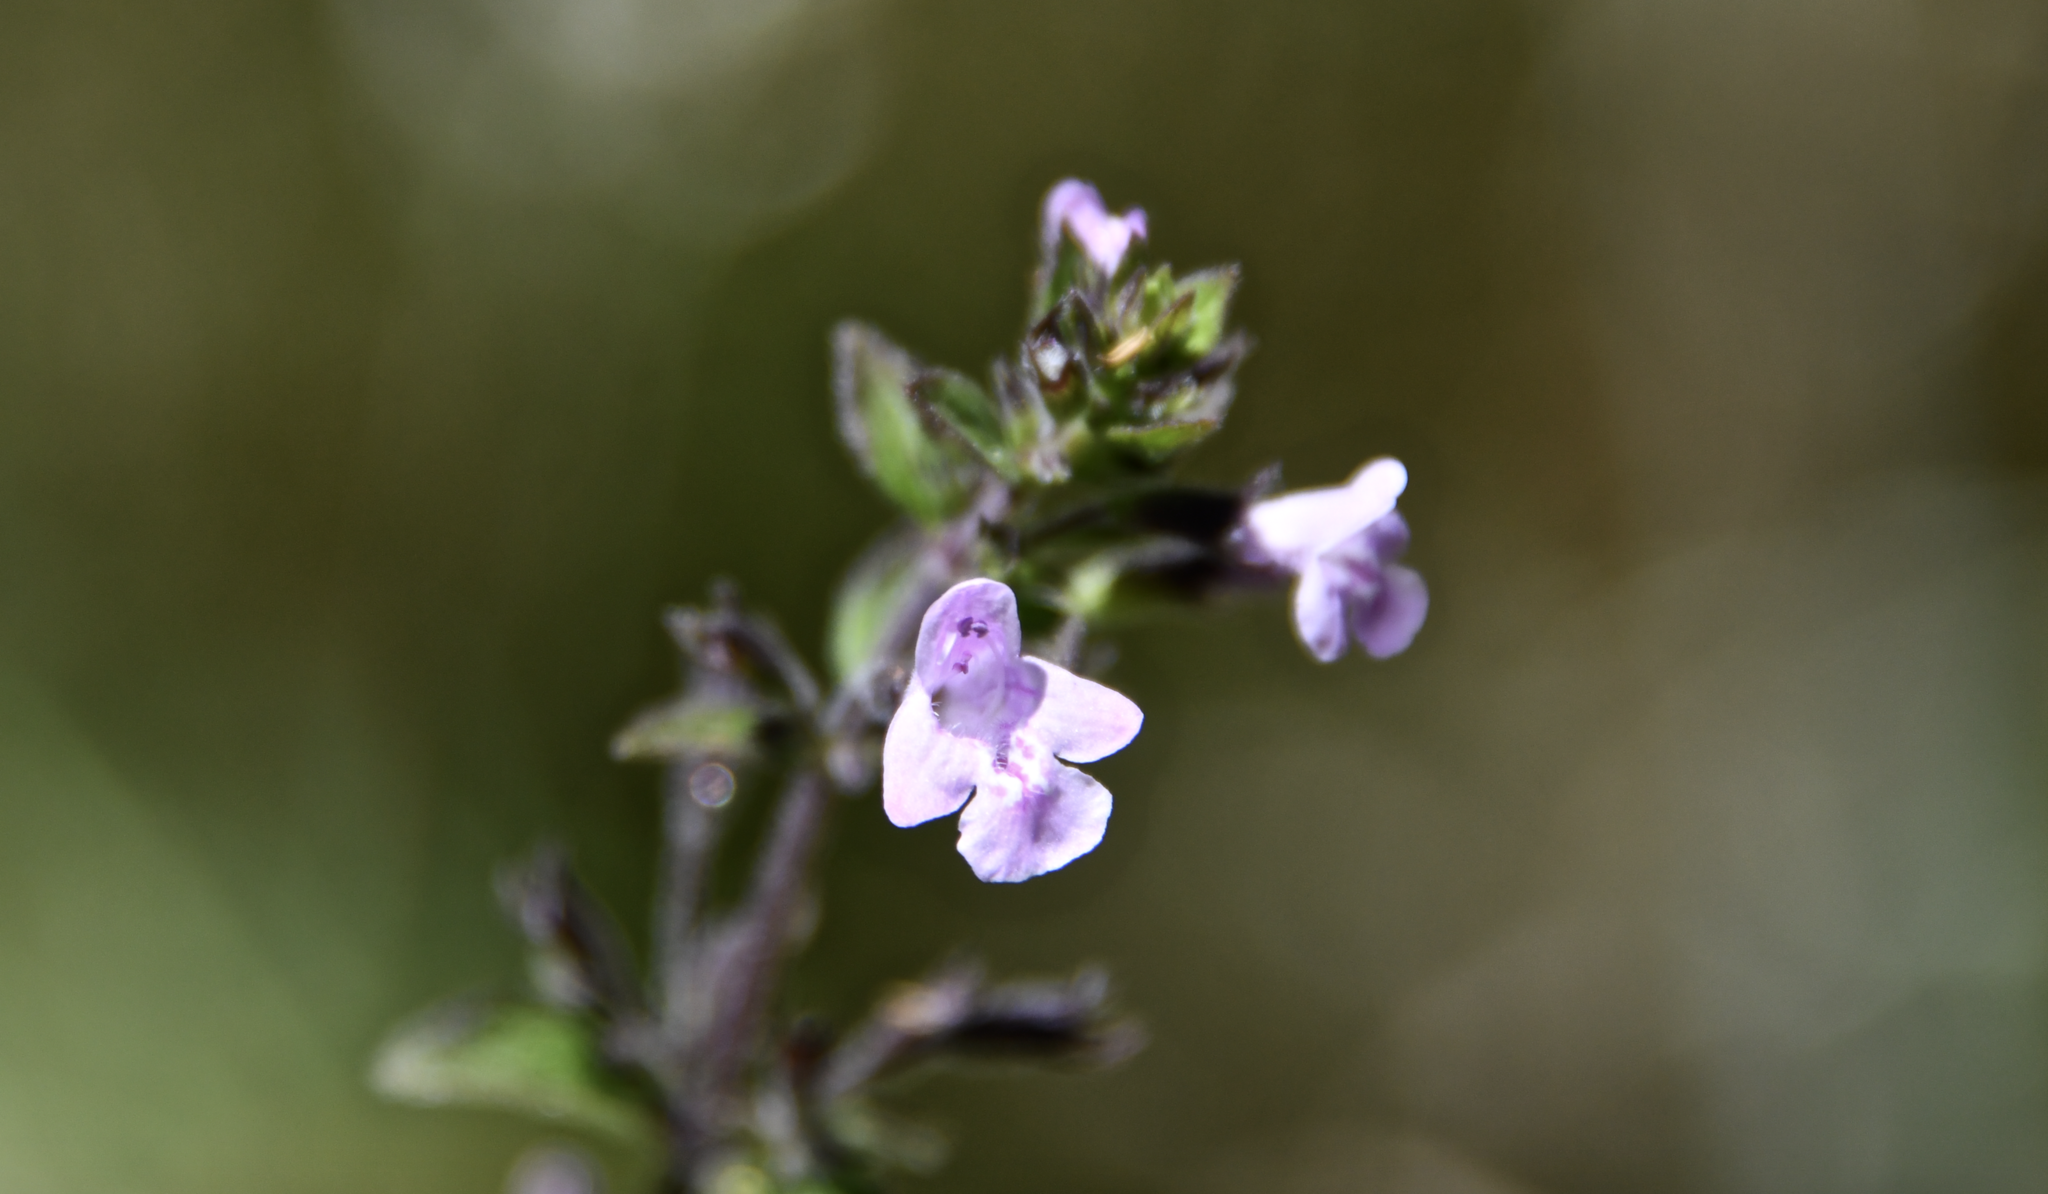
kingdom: Plantae
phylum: Tracheophyta
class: Magnoliopsida
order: Lamiales
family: Lamiaceae
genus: Clinopodium
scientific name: Clinopodium menthifolium
